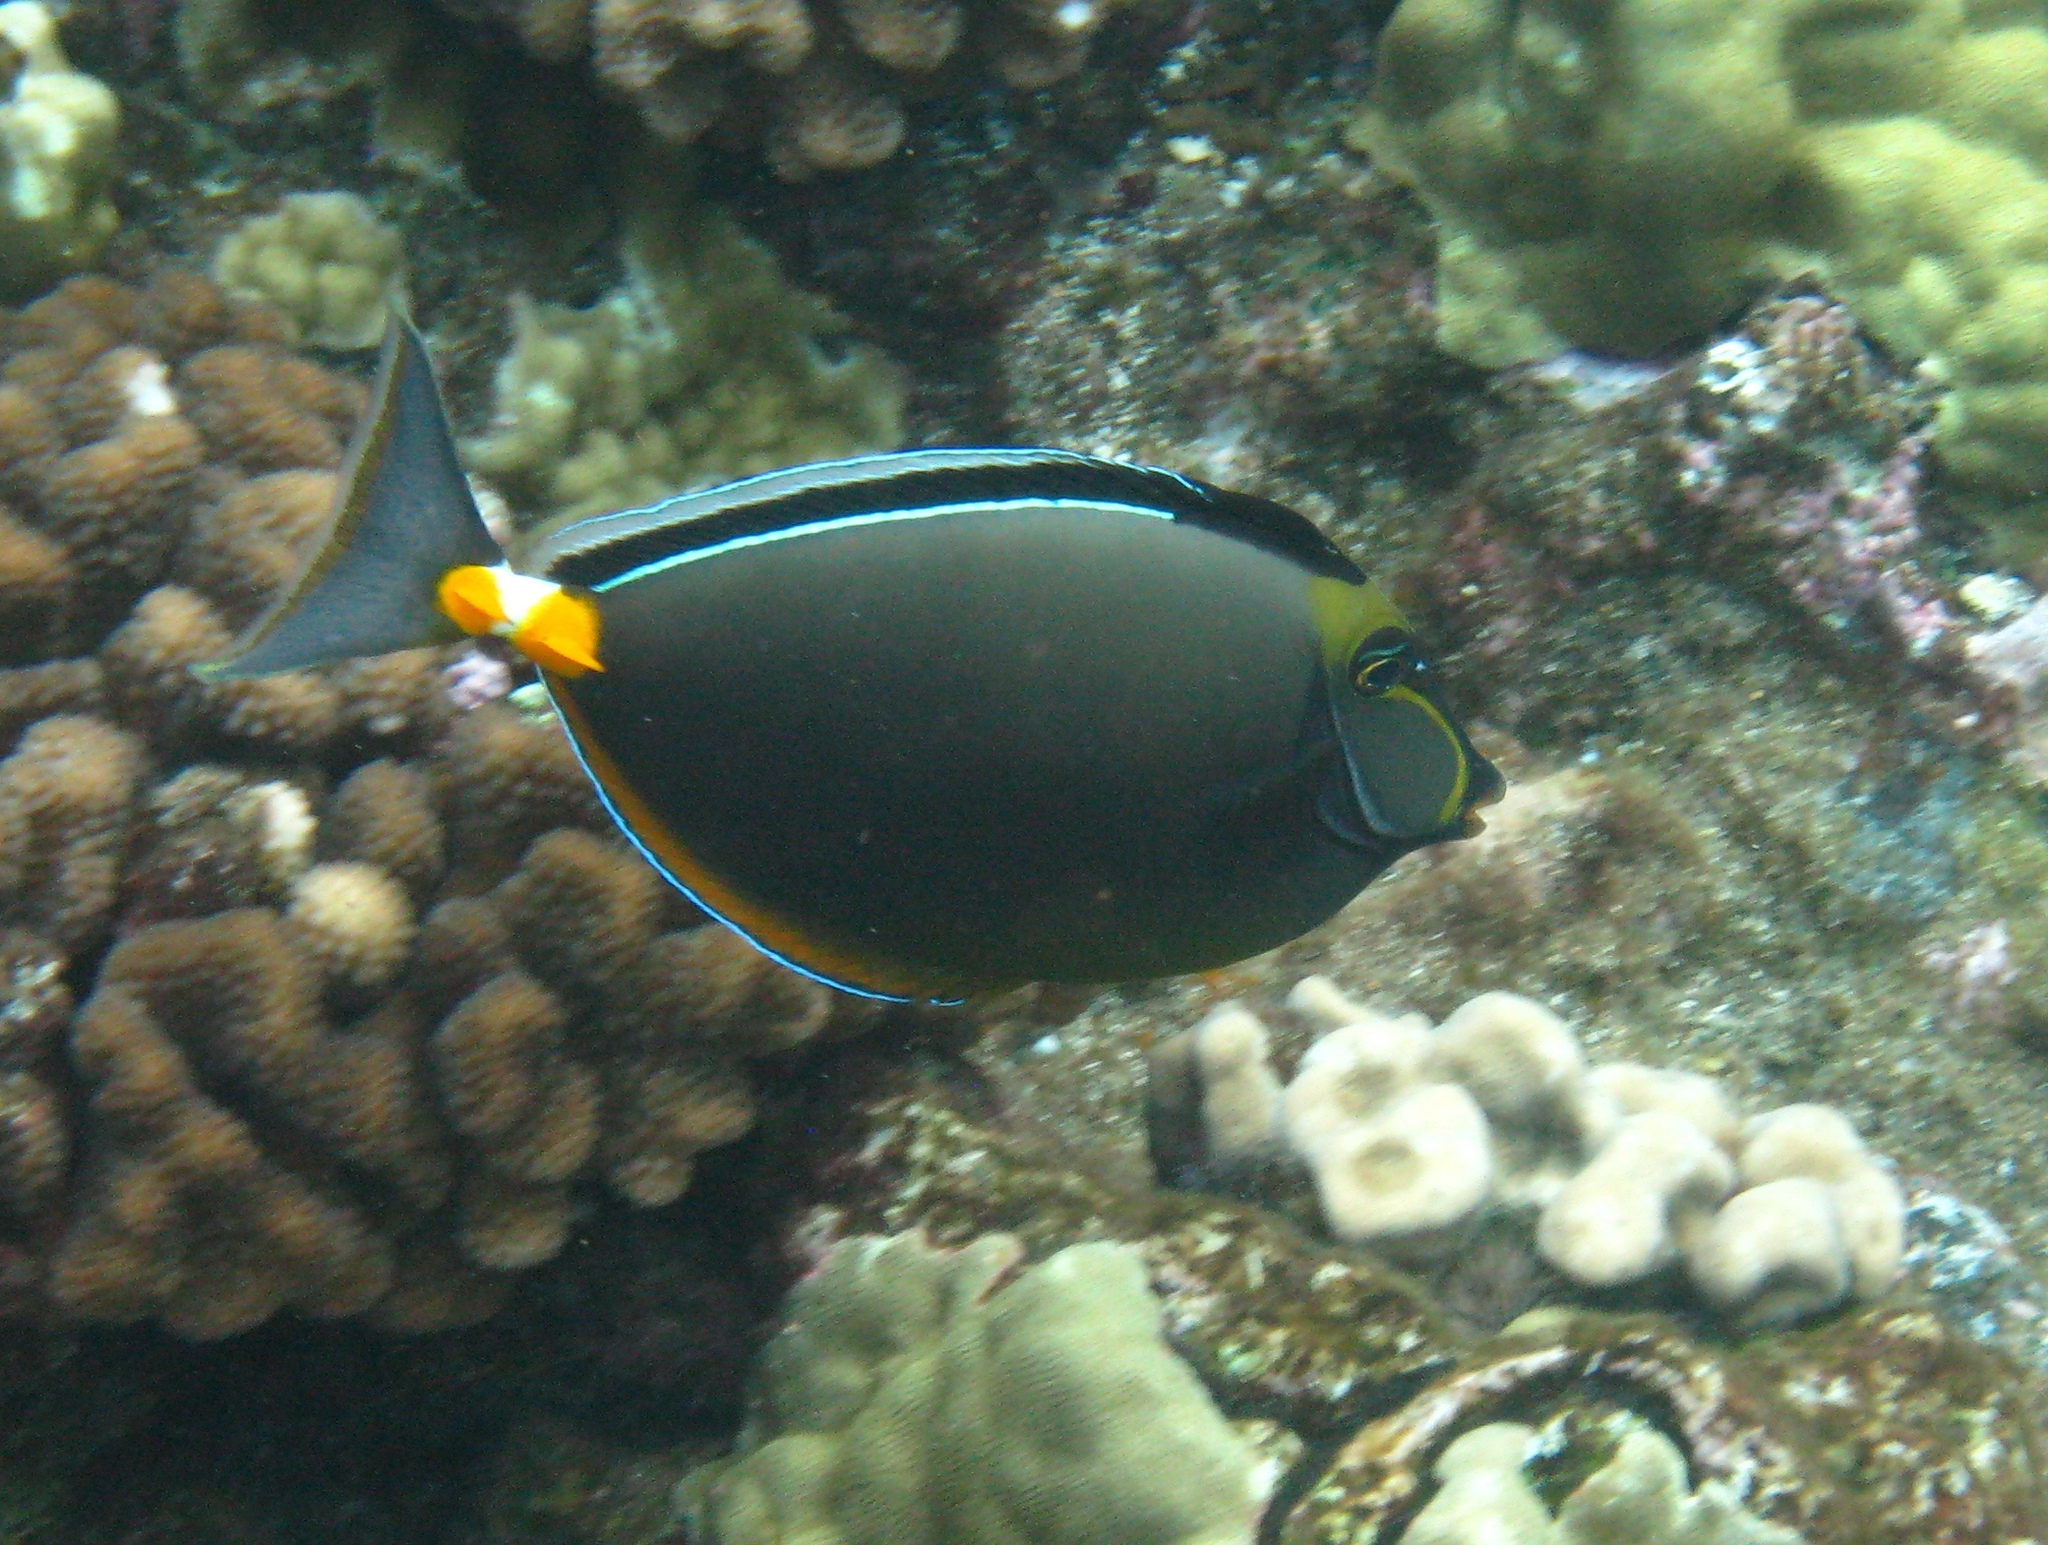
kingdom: Animalia
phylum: Chordata
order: Perciformes
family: Acanthuridae
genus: Naso
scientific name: Naso lituratus
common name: Orangespine unicornfish
